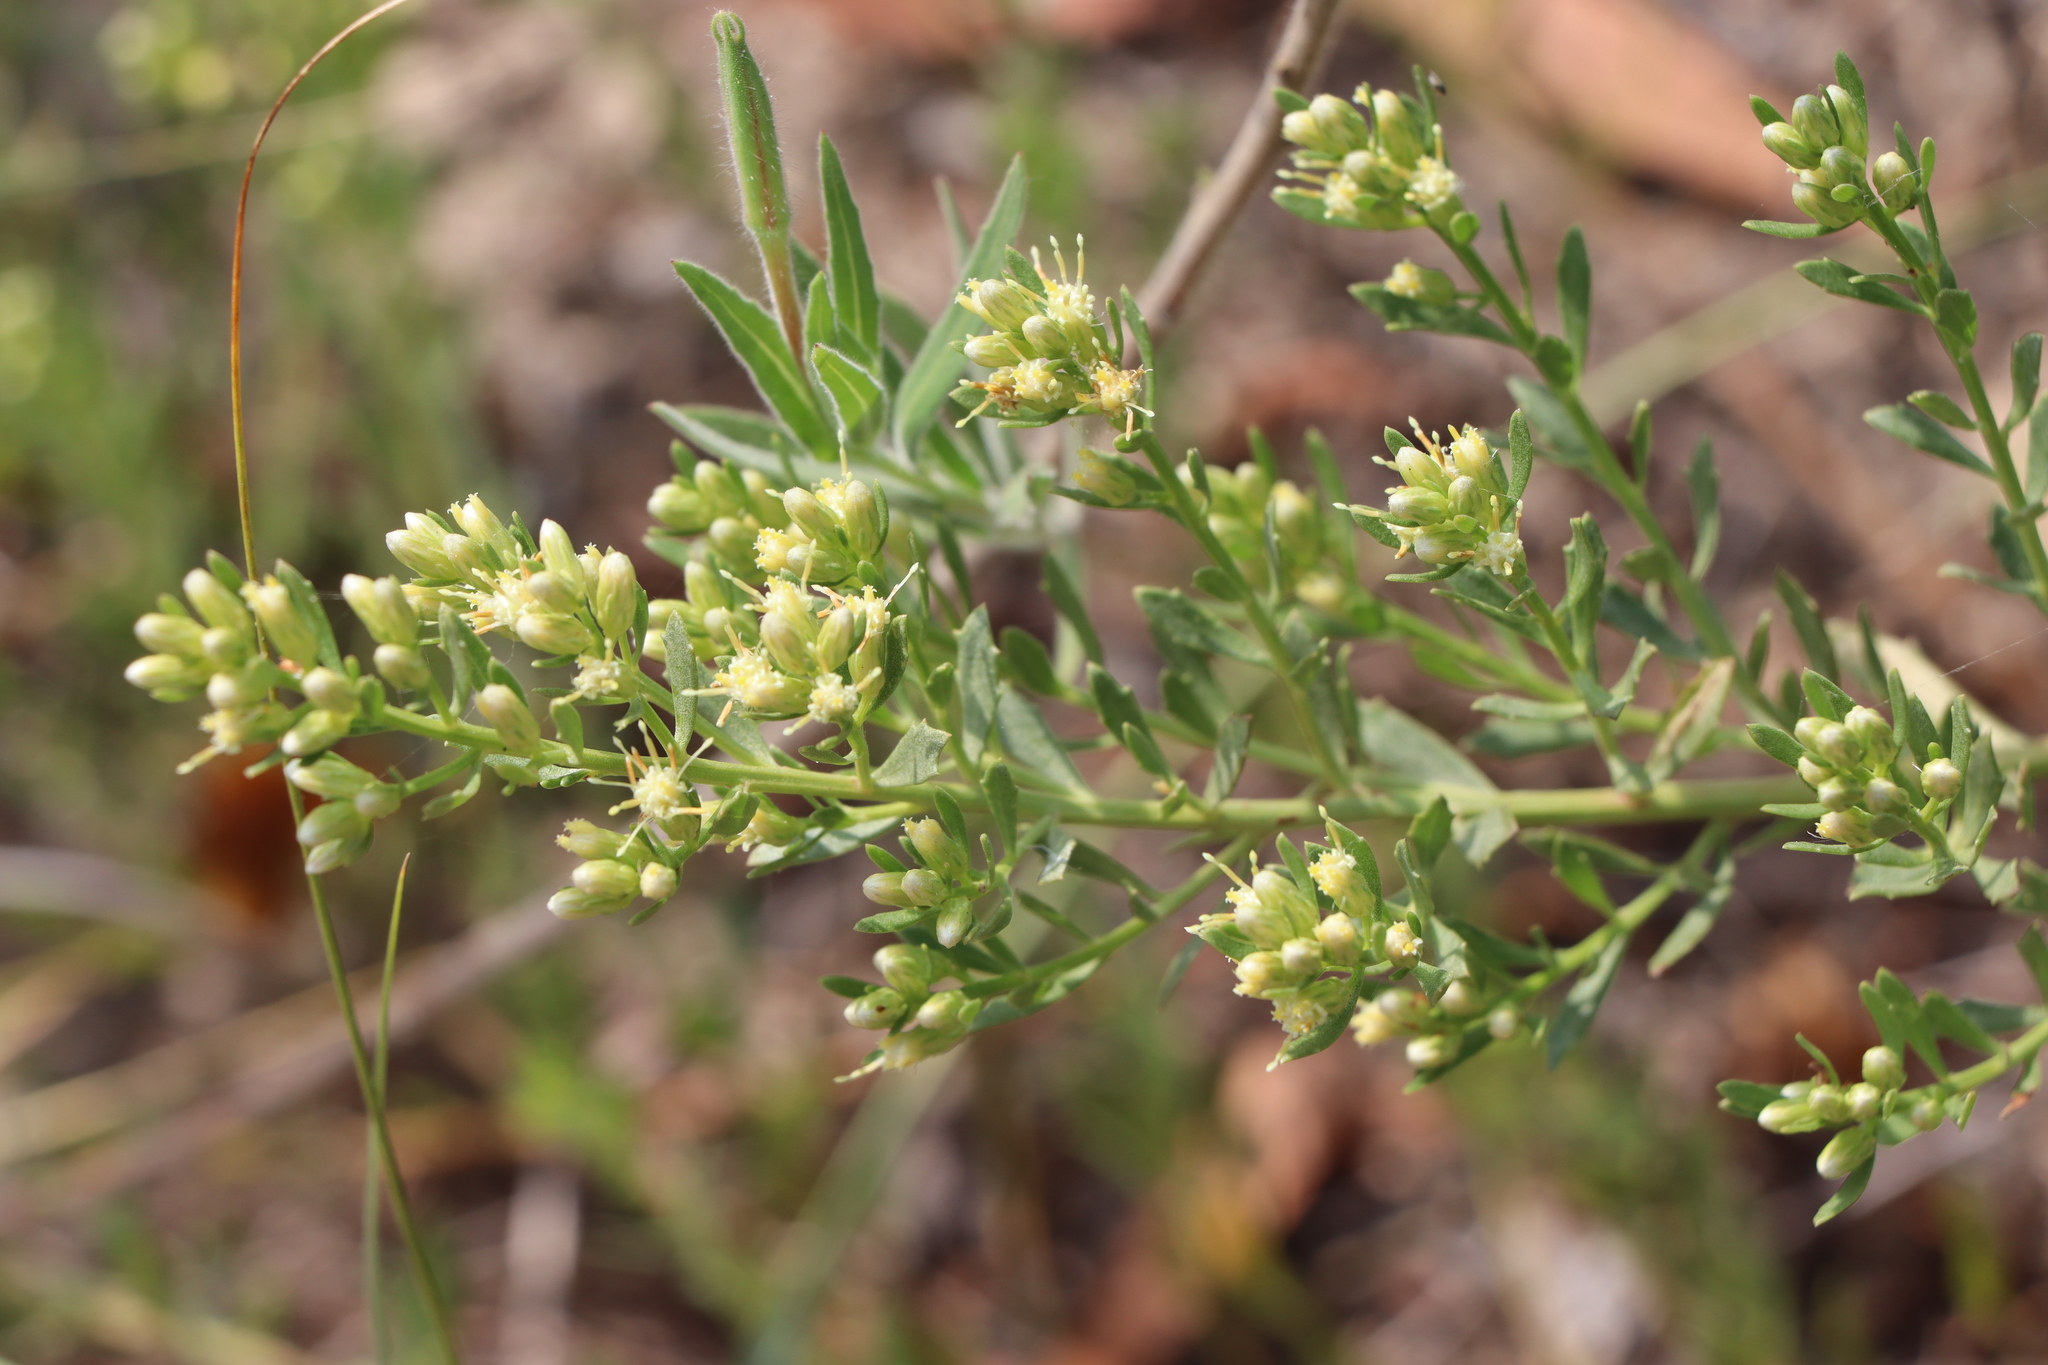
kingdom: Plantae
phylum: Tracheophyta
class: Magnoliopsida
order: Asterales
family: Asteraceae
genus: Baccharis
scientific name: Baccharis linearifolia
